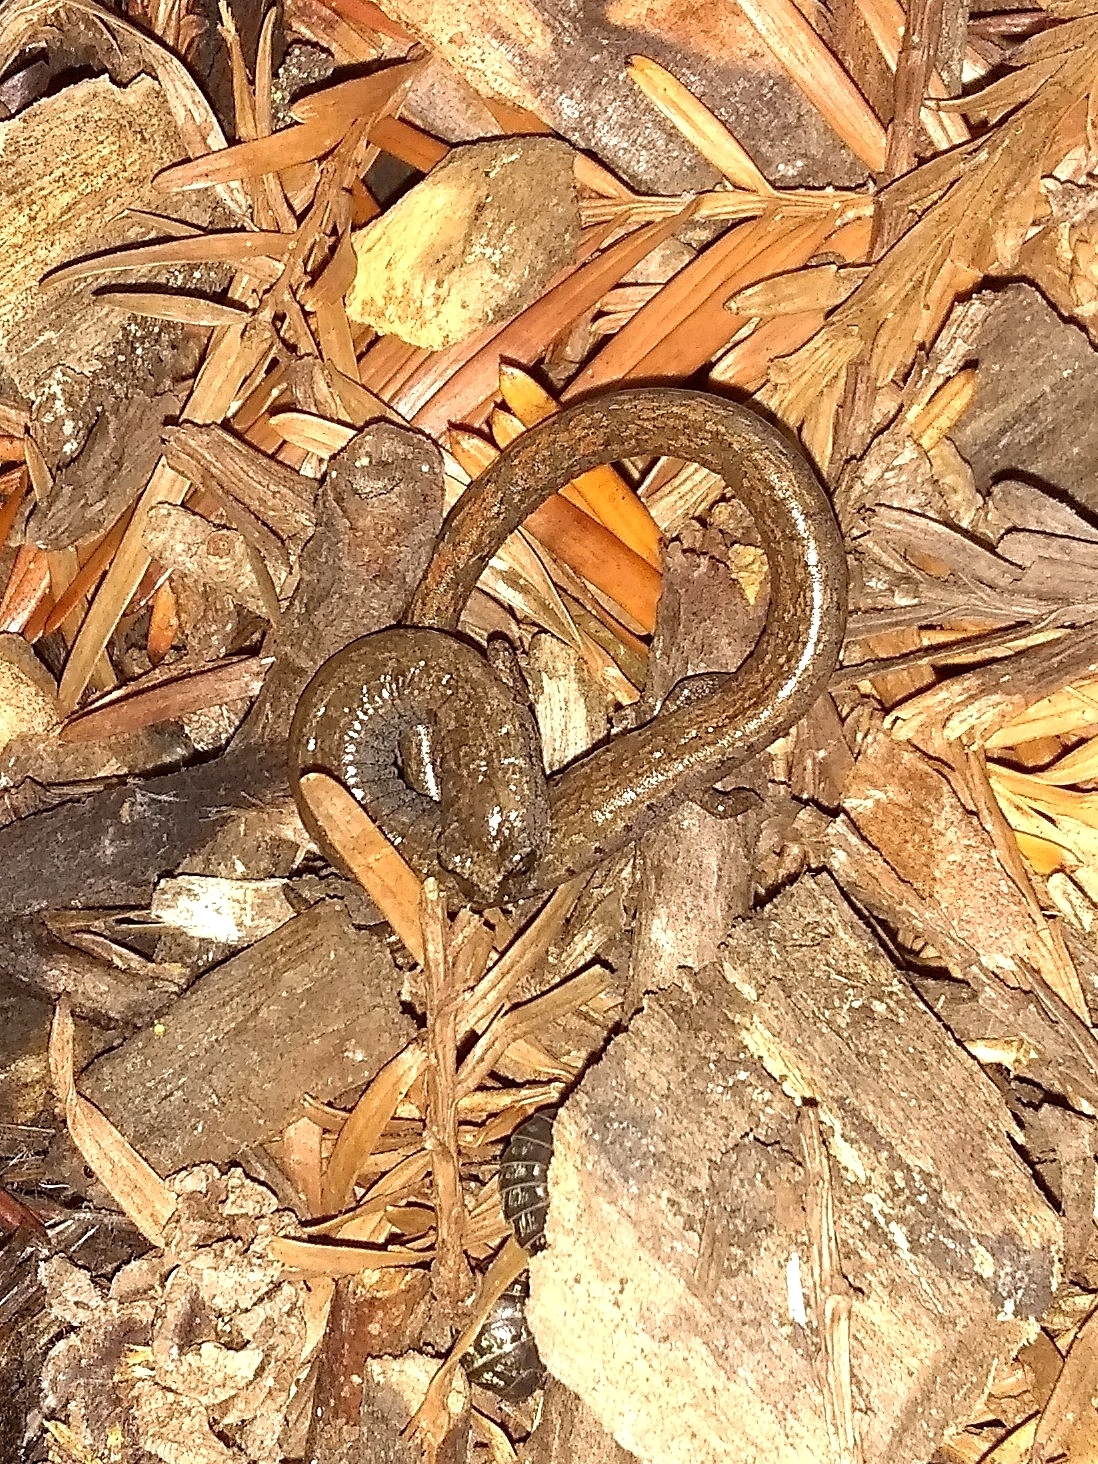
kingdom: Animalia
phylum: Chordata
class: Amphibia
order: Caudata
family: Plethodontidae
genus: Batrachoseps
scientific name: Batrachoseps attenuatus
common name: California slender salamander
